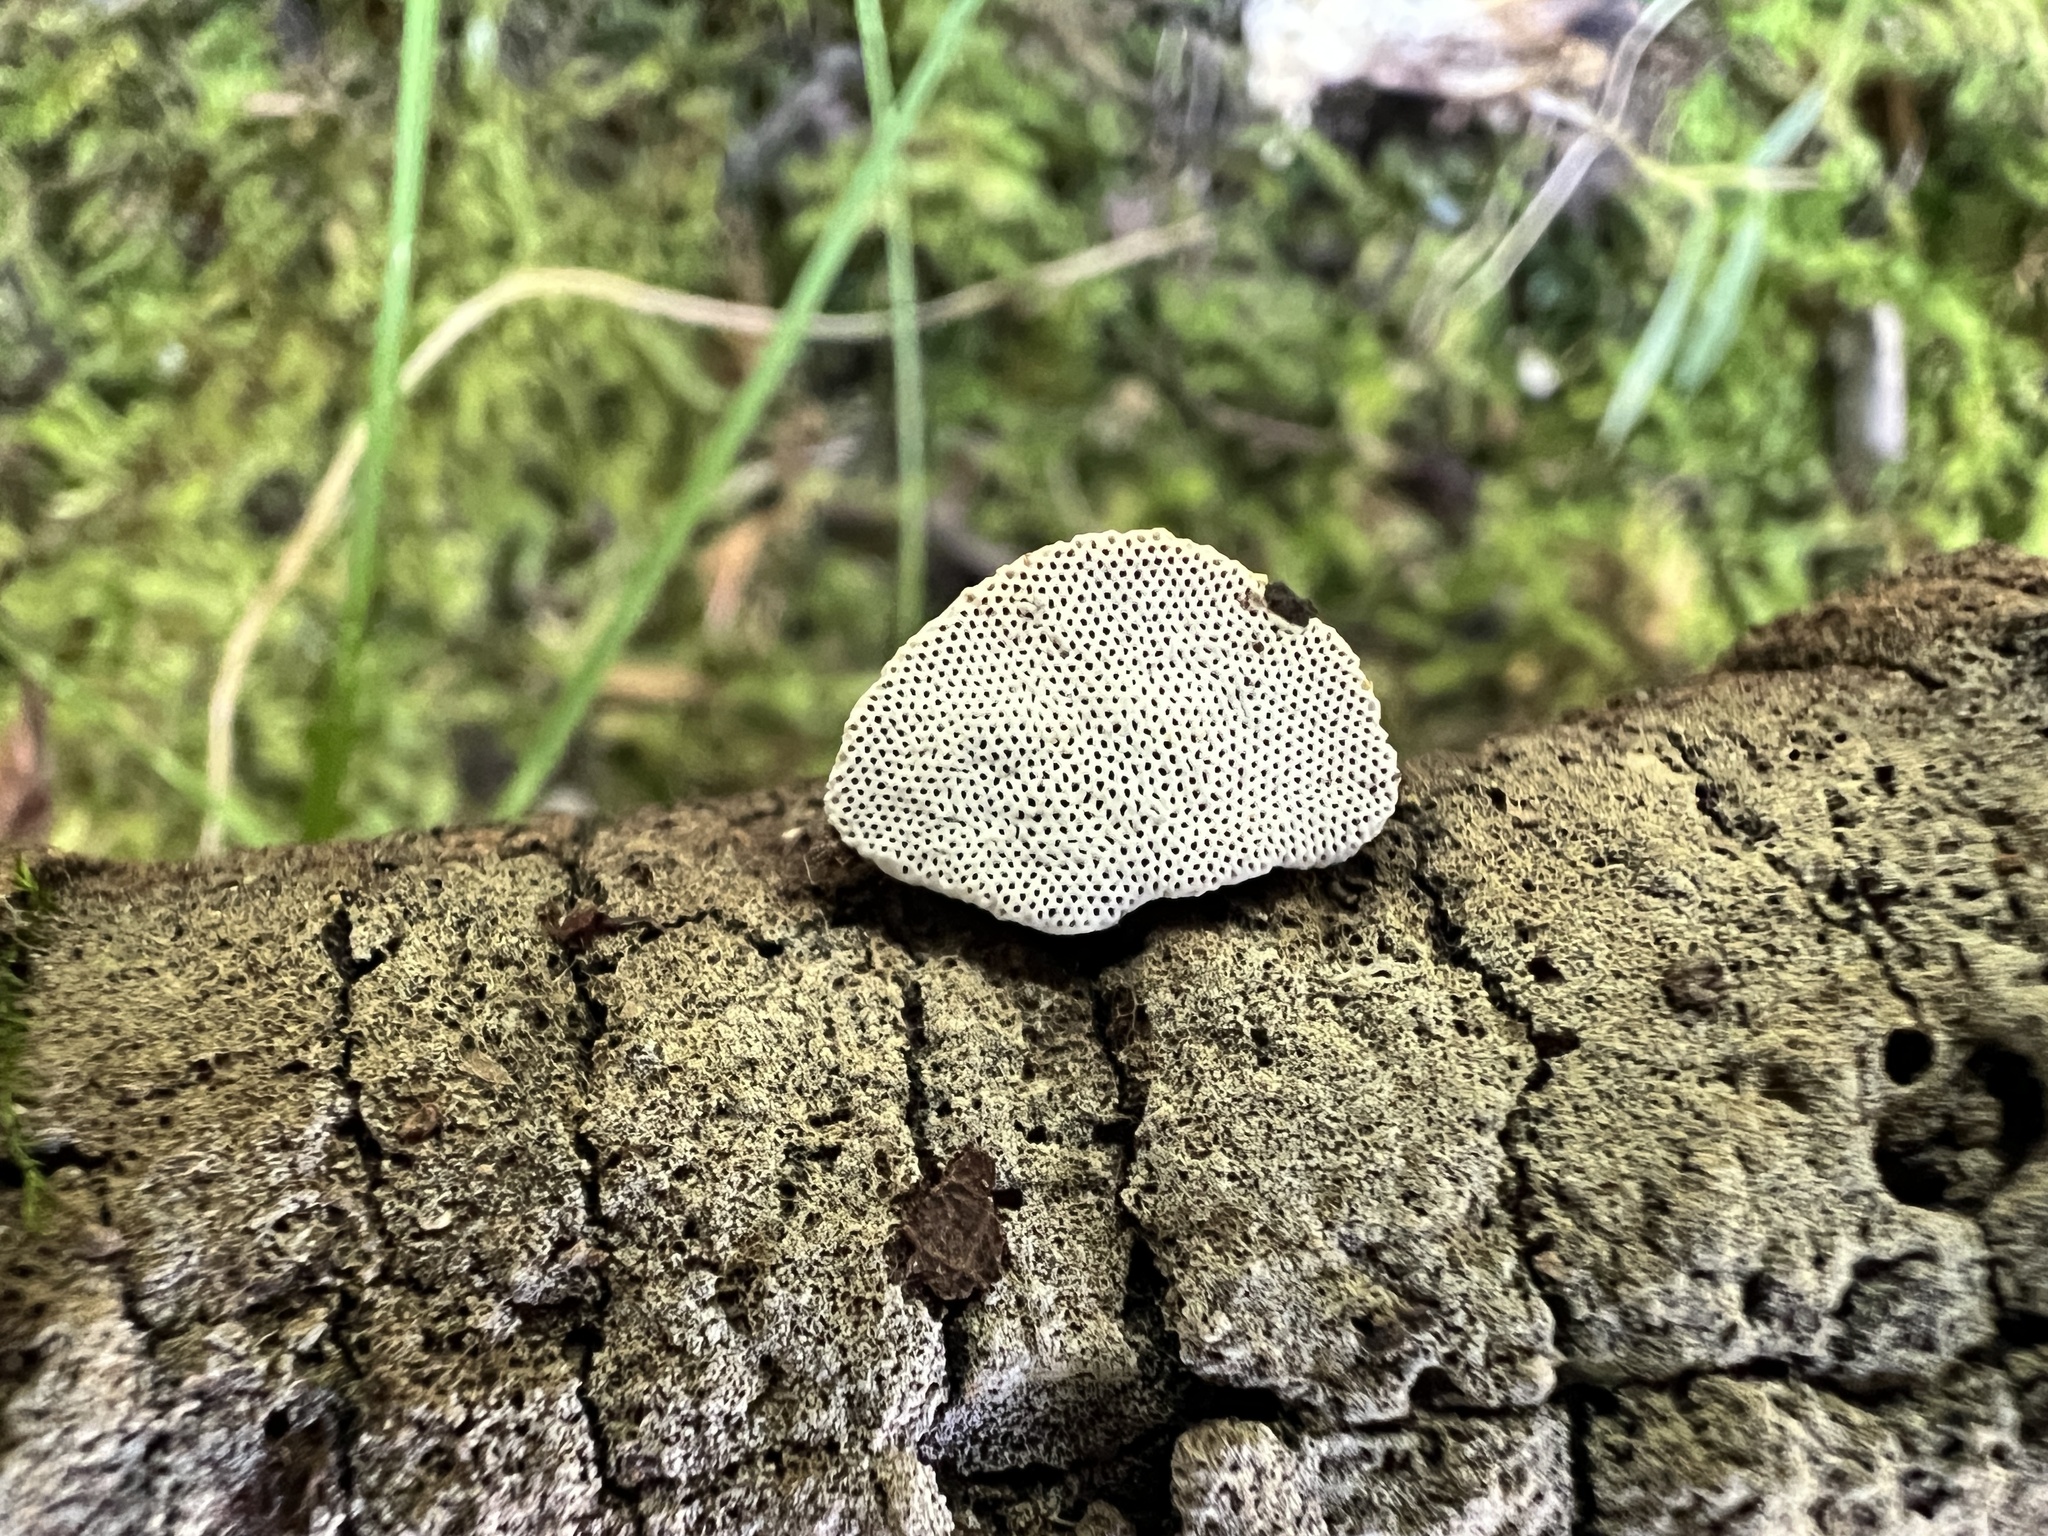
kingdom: Fungi
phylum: Basidiomycota
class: Agaricomycetes
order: Polyporales
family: Polyporaceae
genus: Perenniporia
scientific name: Perenniporia ohiensis
